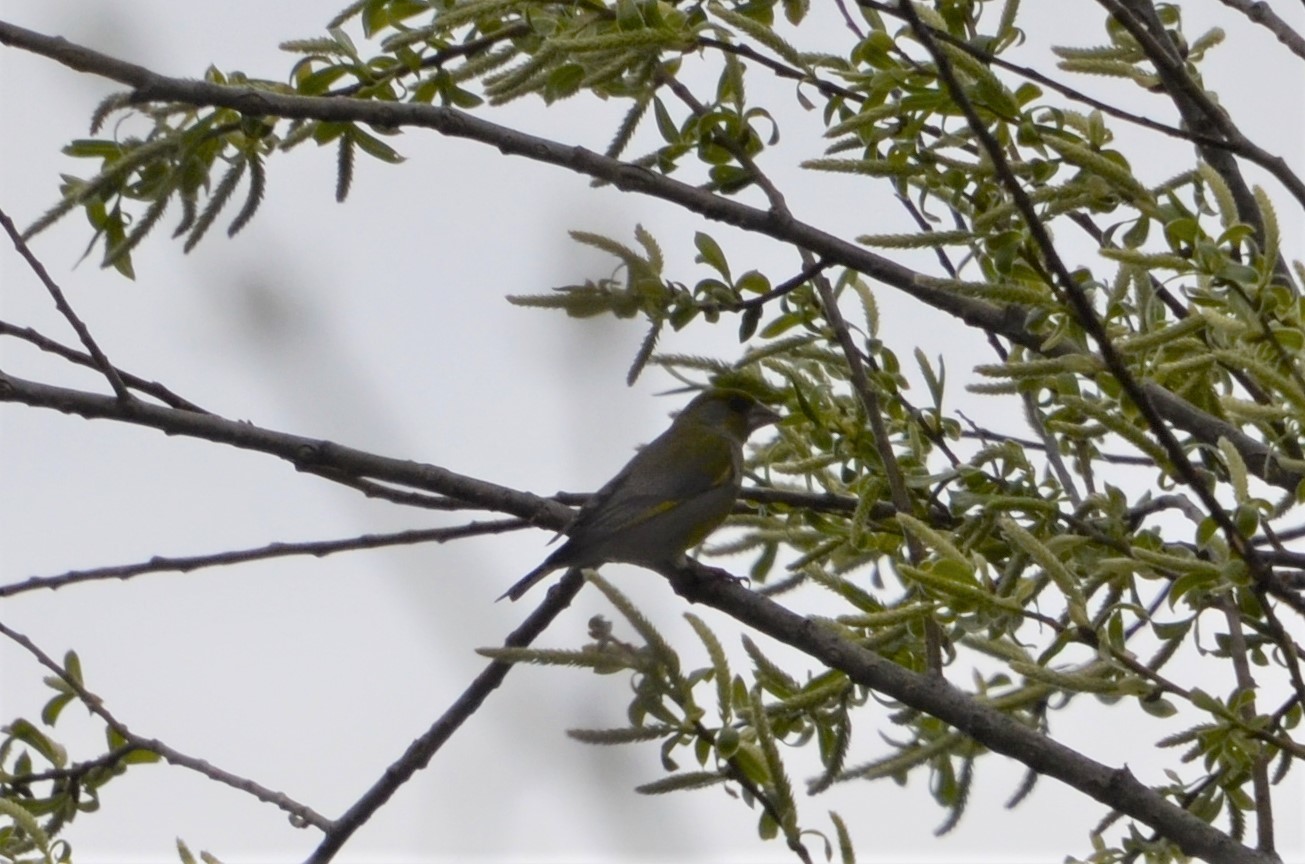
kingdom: Plantae
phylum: Tracheophyta
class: Liliopsida
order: Poales
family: Poaceae
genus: Chloris
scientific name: Chloris chloris
